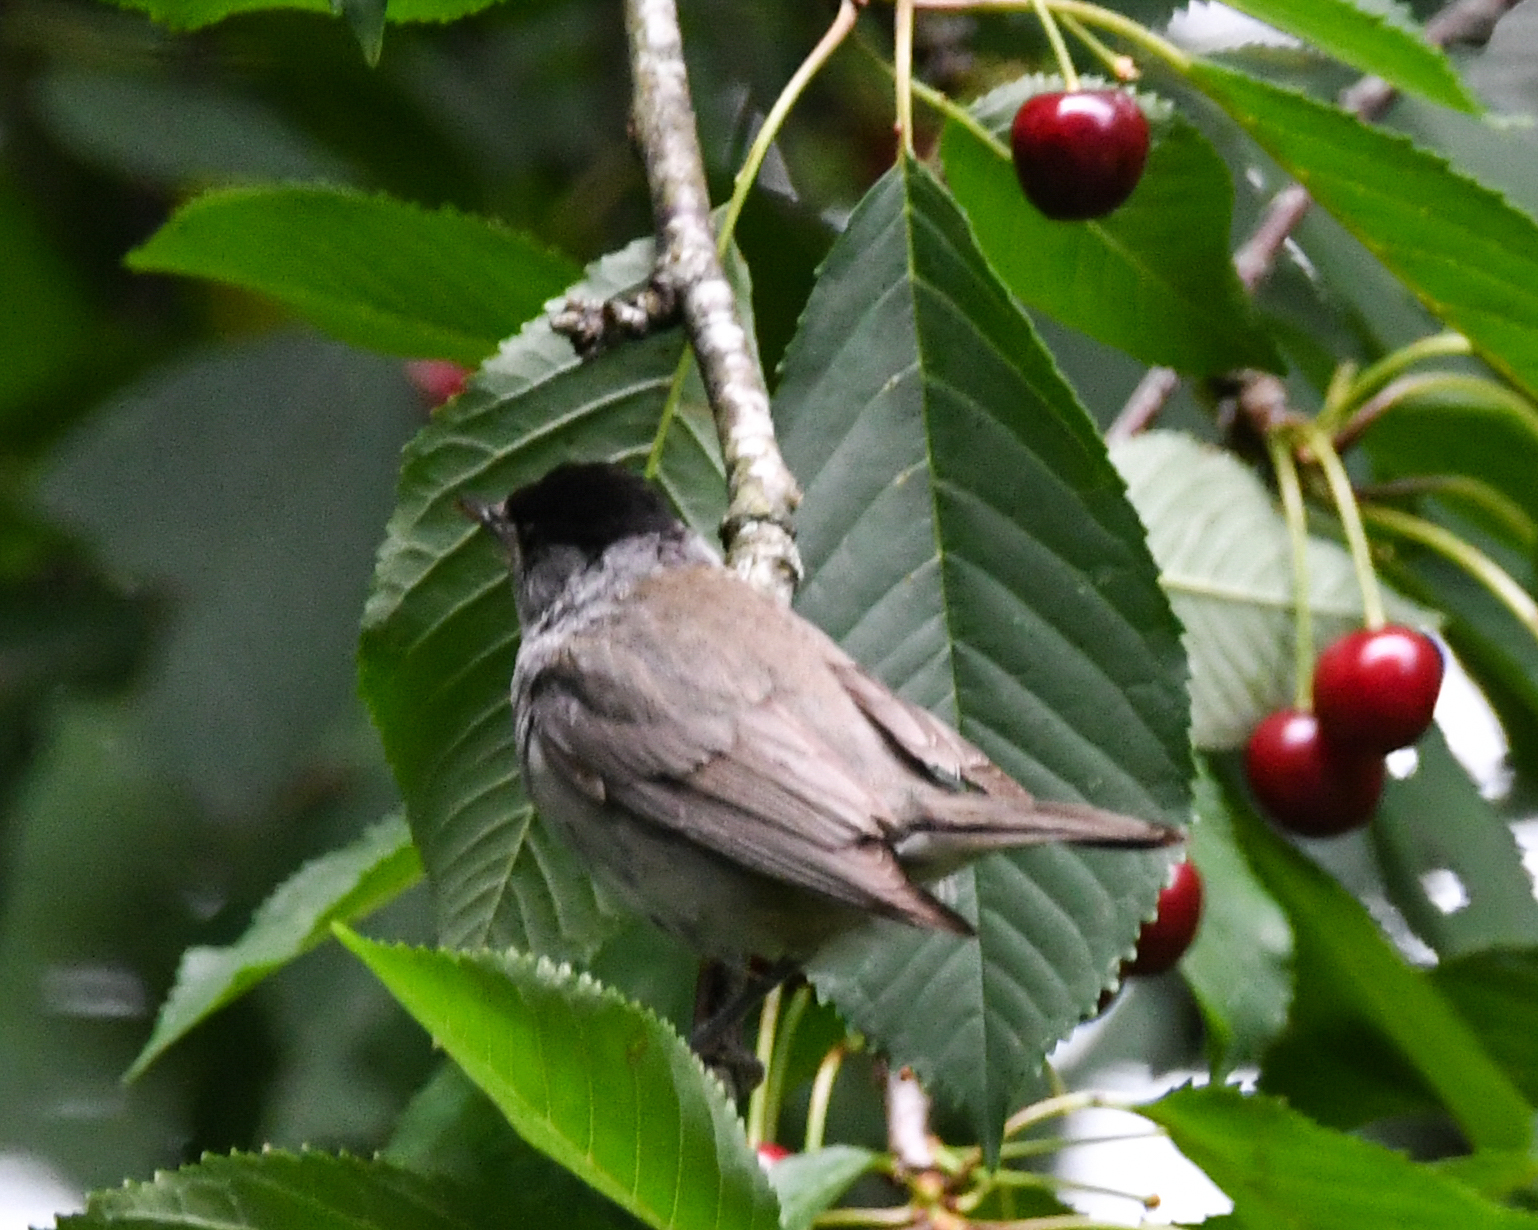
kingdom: Animalia
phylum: Chordata
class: Aves
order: Passeriformes
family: Sylviidae
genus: Sylvia
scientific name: Sylvia atricapilla
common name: Eurasian blackcap
